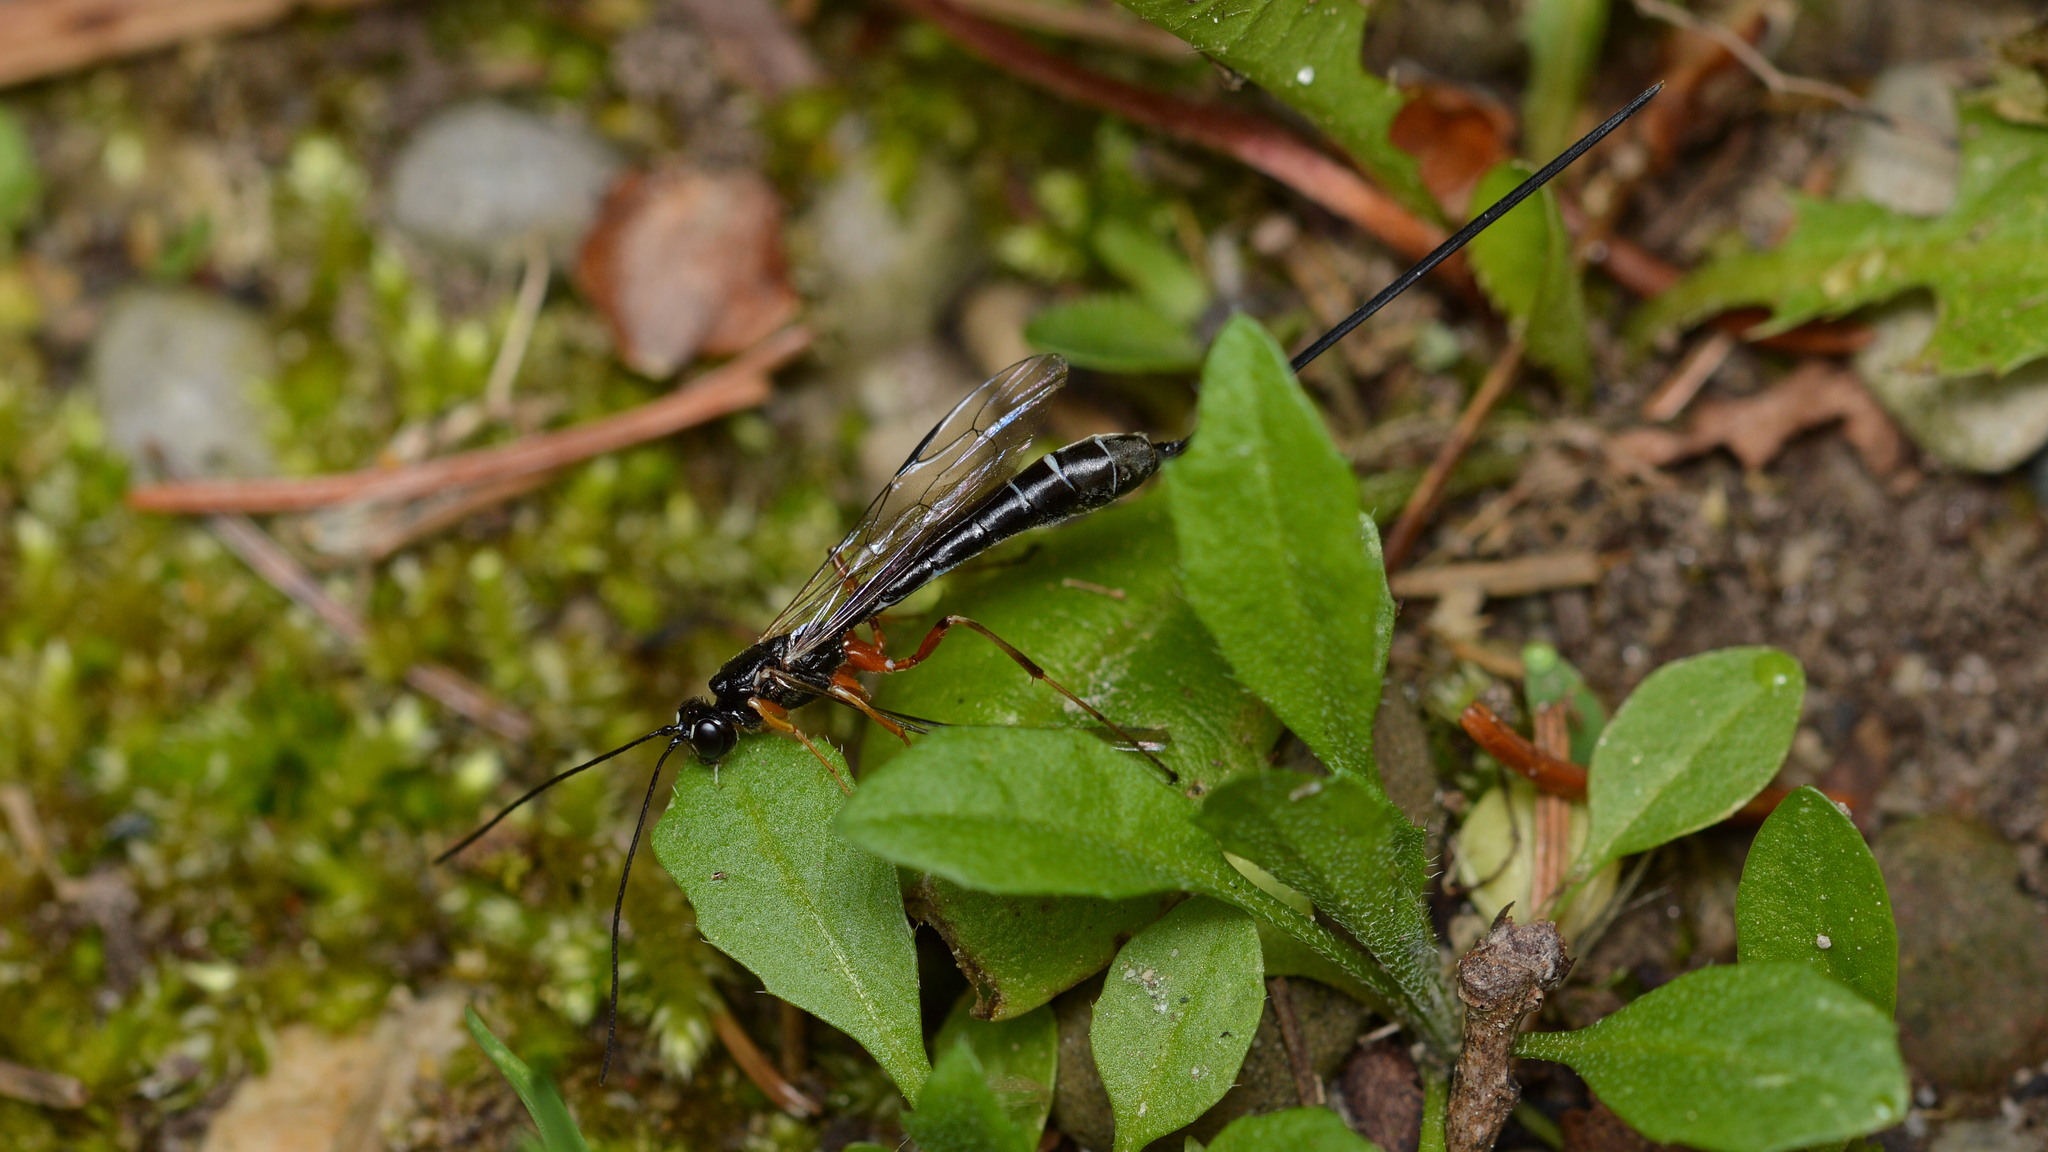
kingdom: Animalia
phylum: Arthropoda
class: Insecta
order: Hymenoptera
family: Ichneumonidae
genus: Rhyssella
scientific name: Rhyssella nitida
